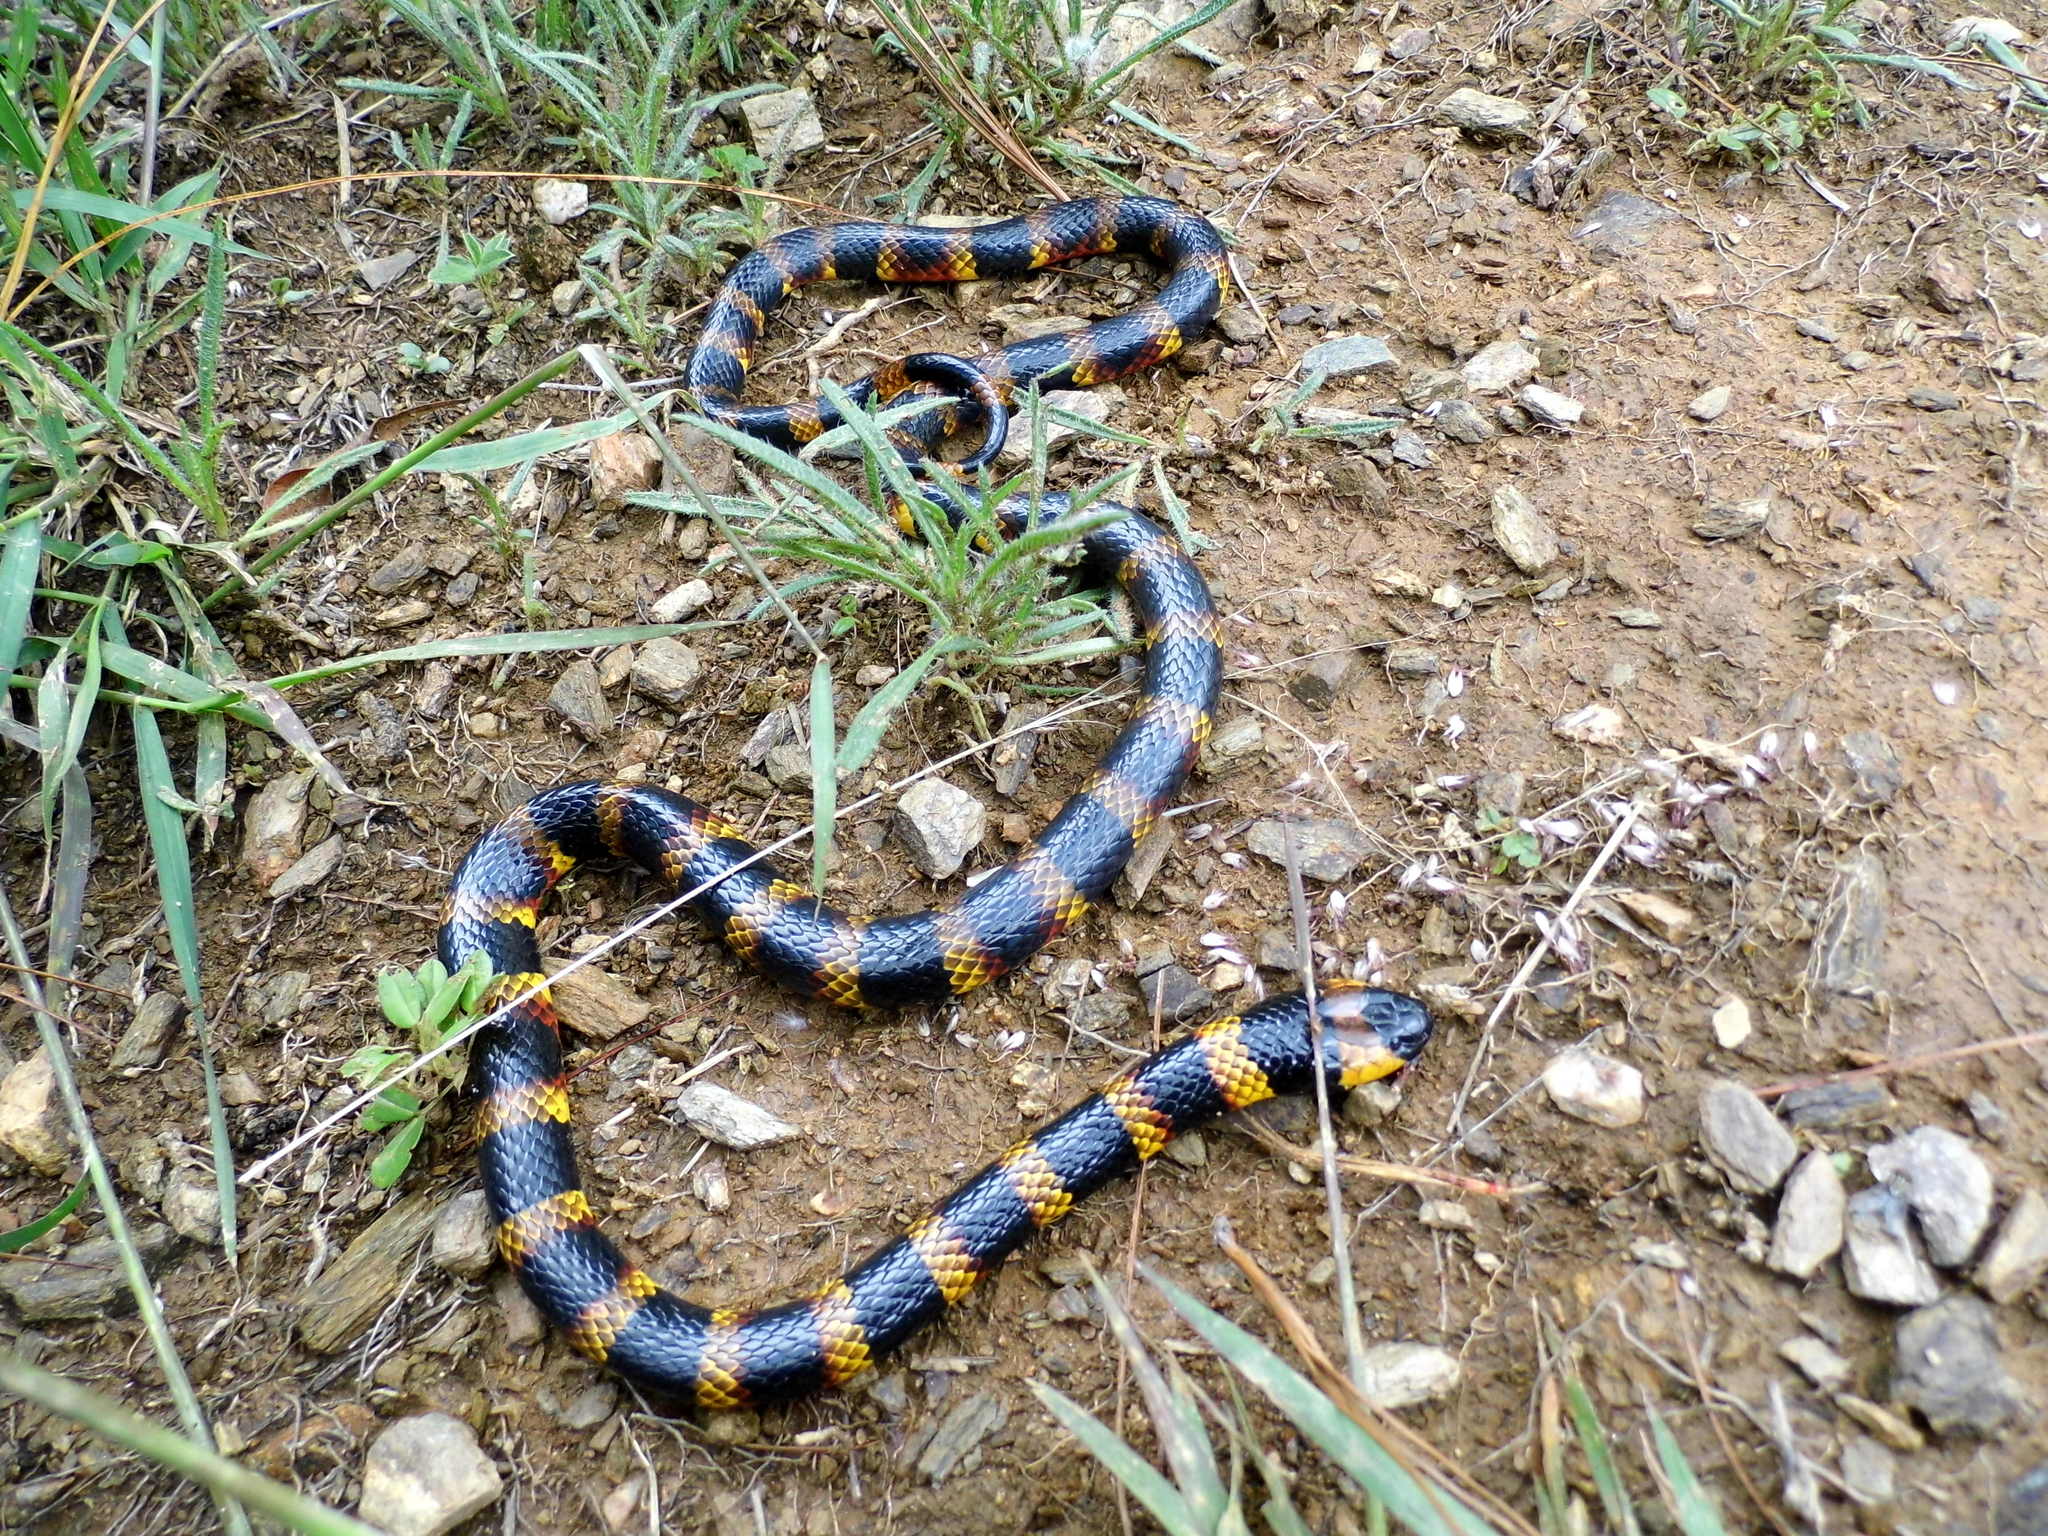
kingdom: Animalia
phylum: Chordata
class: Squamata
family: Elapidae
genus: Micrurus
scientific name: Micrurus ephippifer
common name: Double black coral snake
